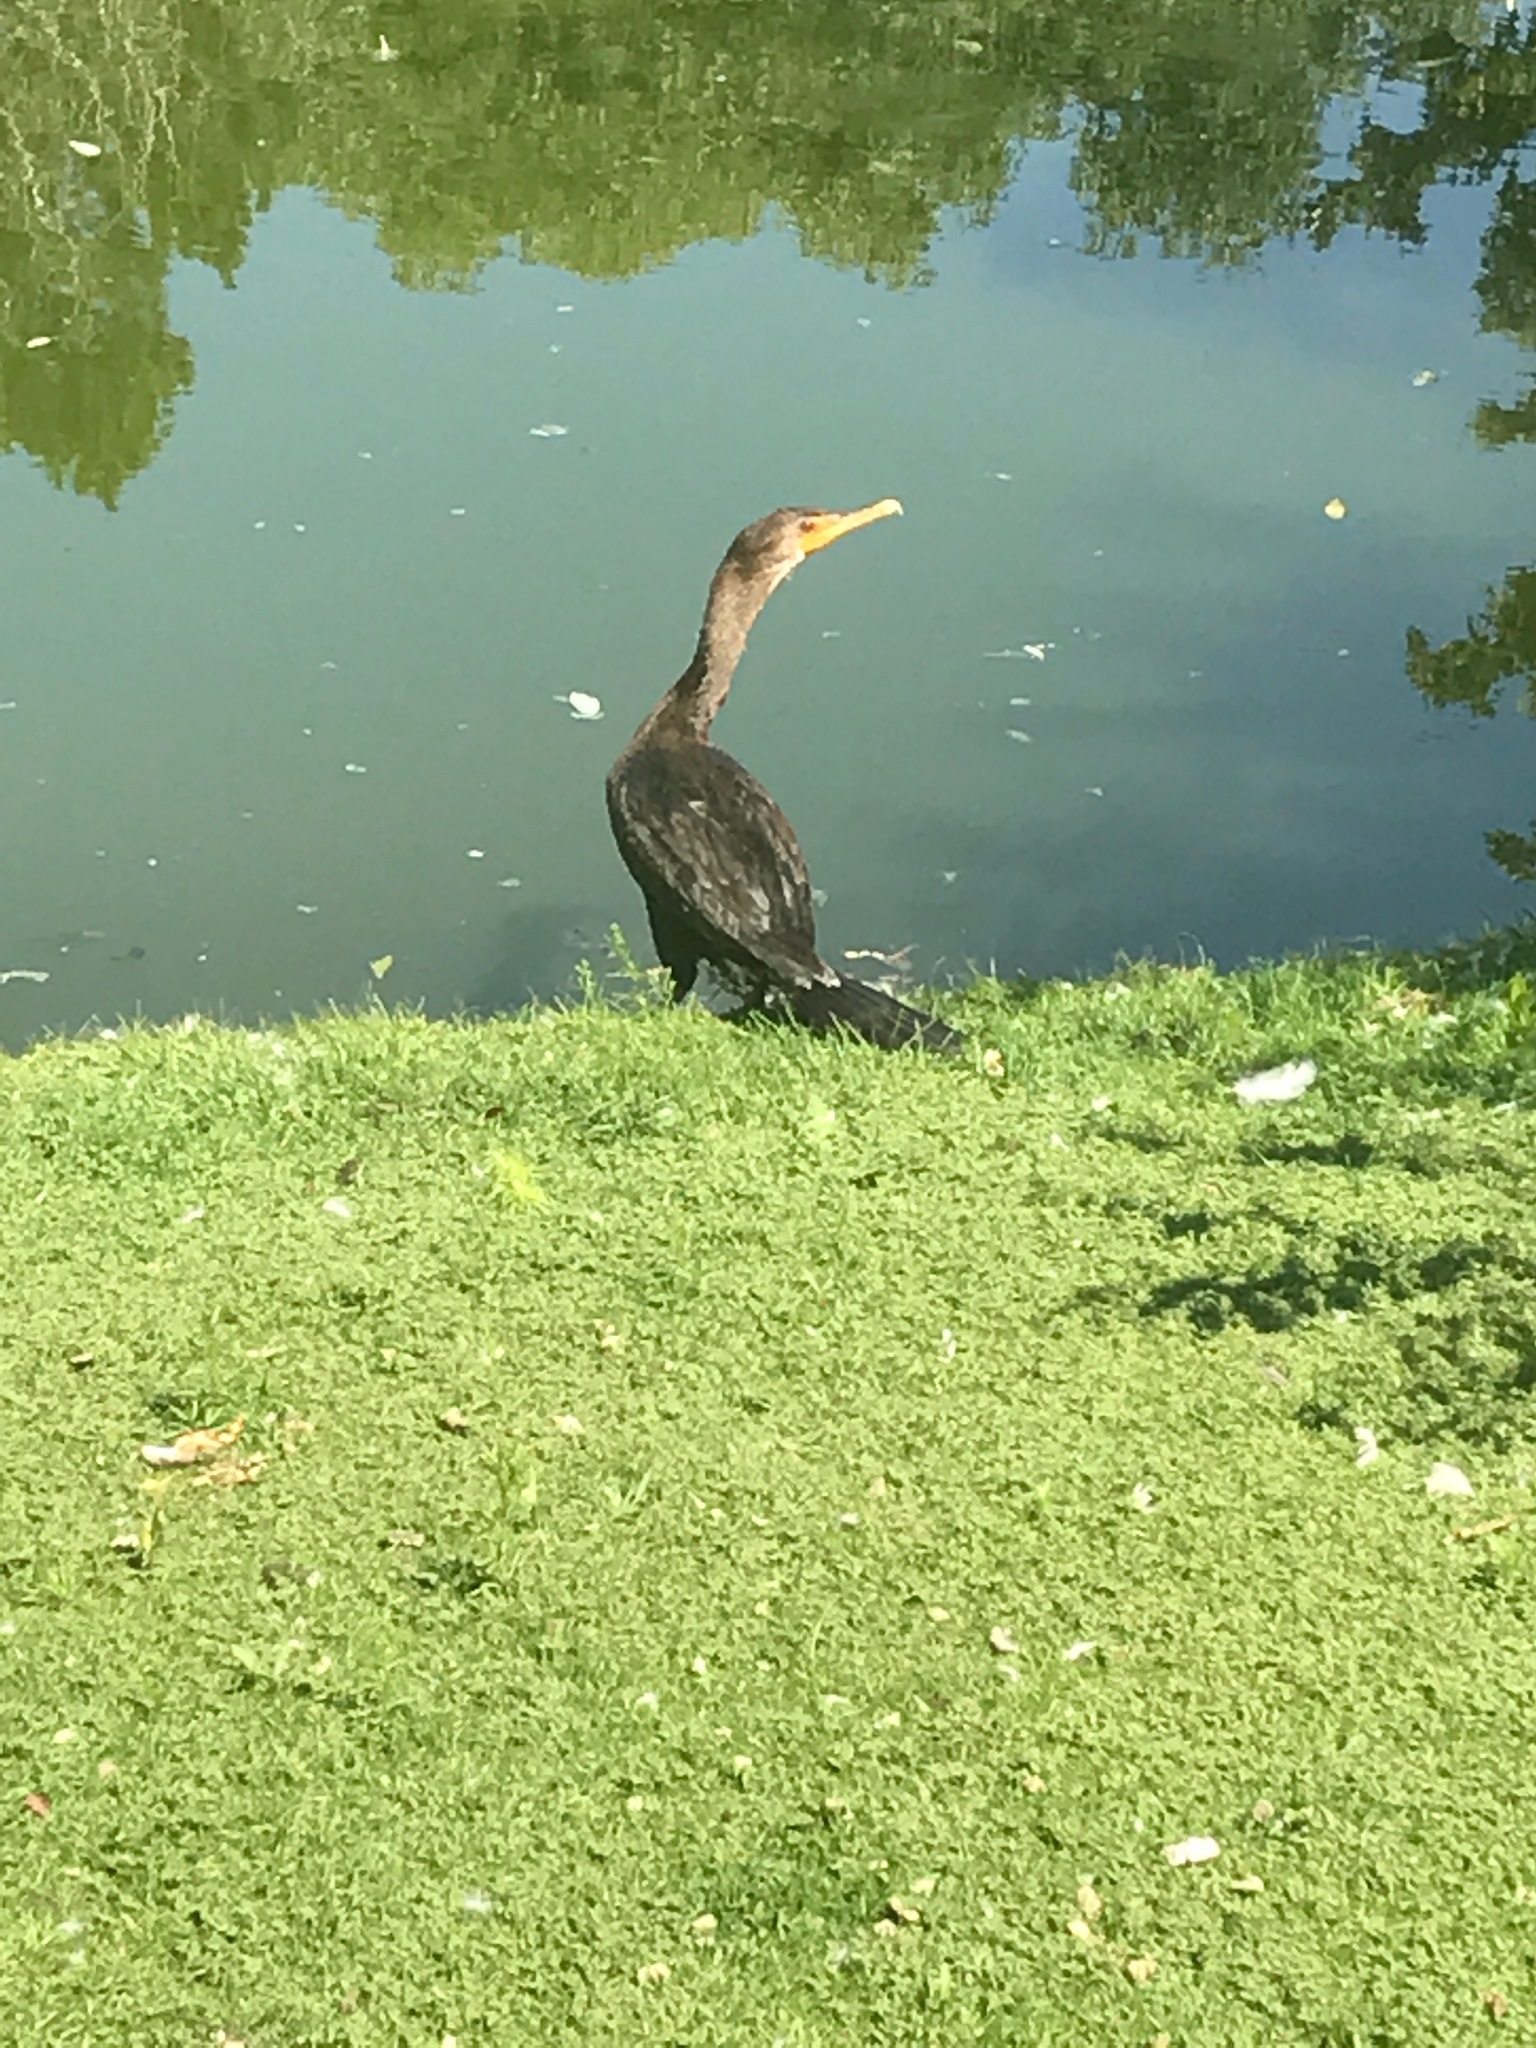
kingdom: Animalia
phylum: Chordata
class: Aves
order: Suliformes
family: Phalacrocoracidae
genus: Phalacrocorax
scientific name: Phalacrocorax auritus
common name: Double-crested cormorant
